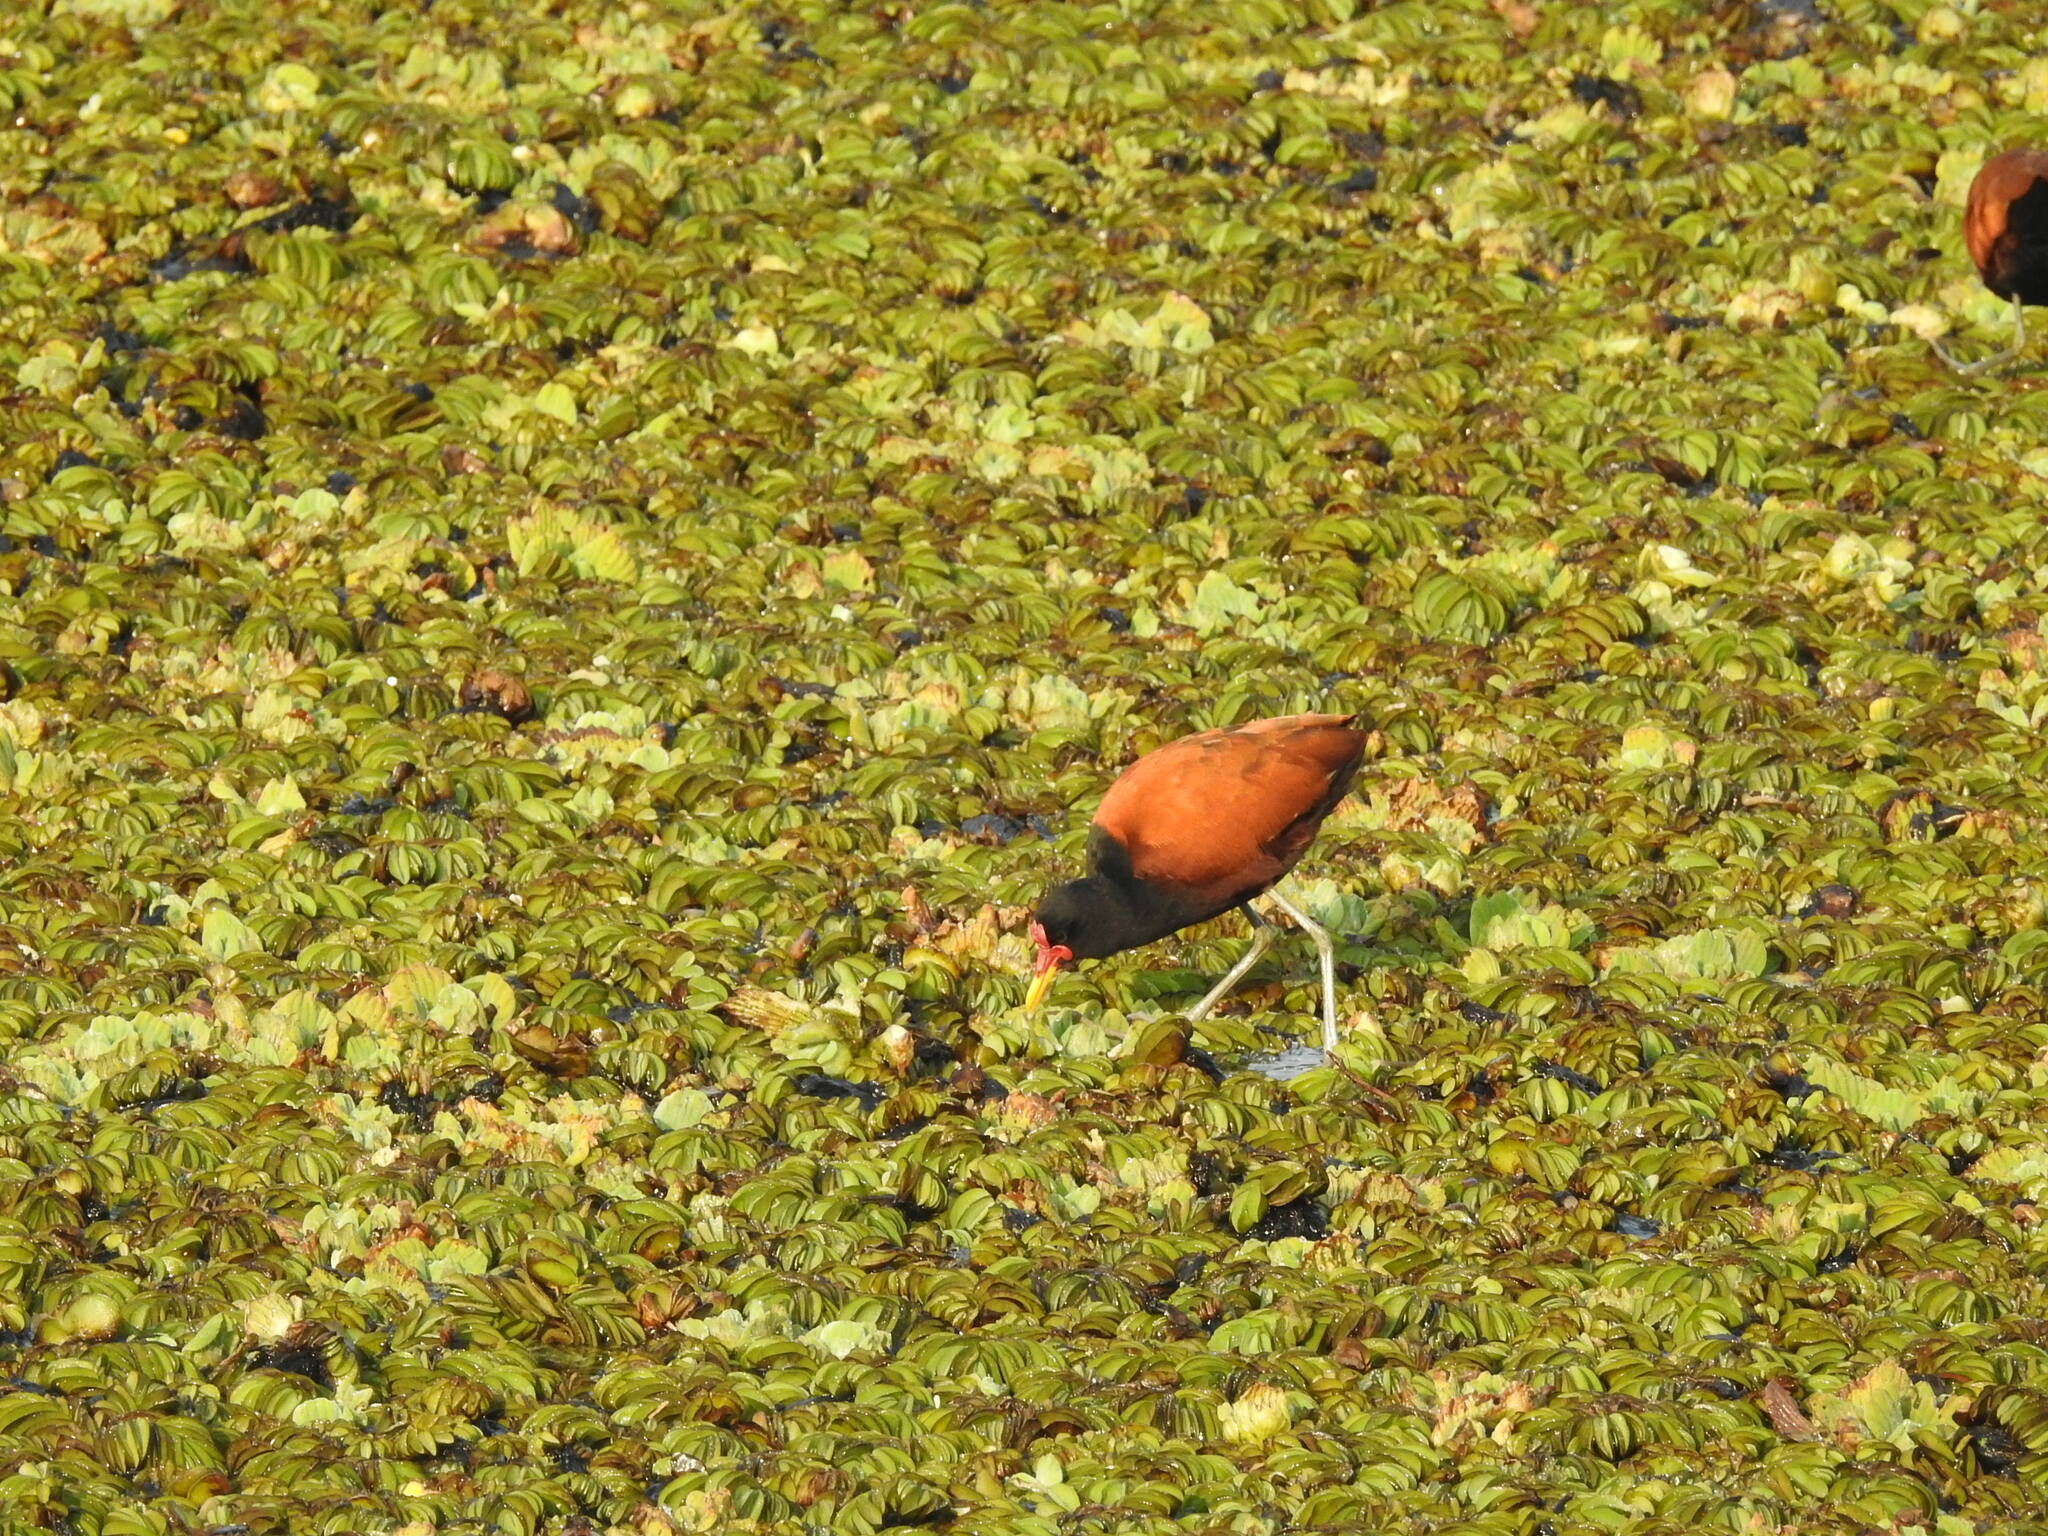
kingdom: Animalia
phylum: Chordata
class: Aves
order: Charadriiformes
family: Jacanidae
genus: Jacana
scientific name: Jacana jacana
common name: Wattled jacana
